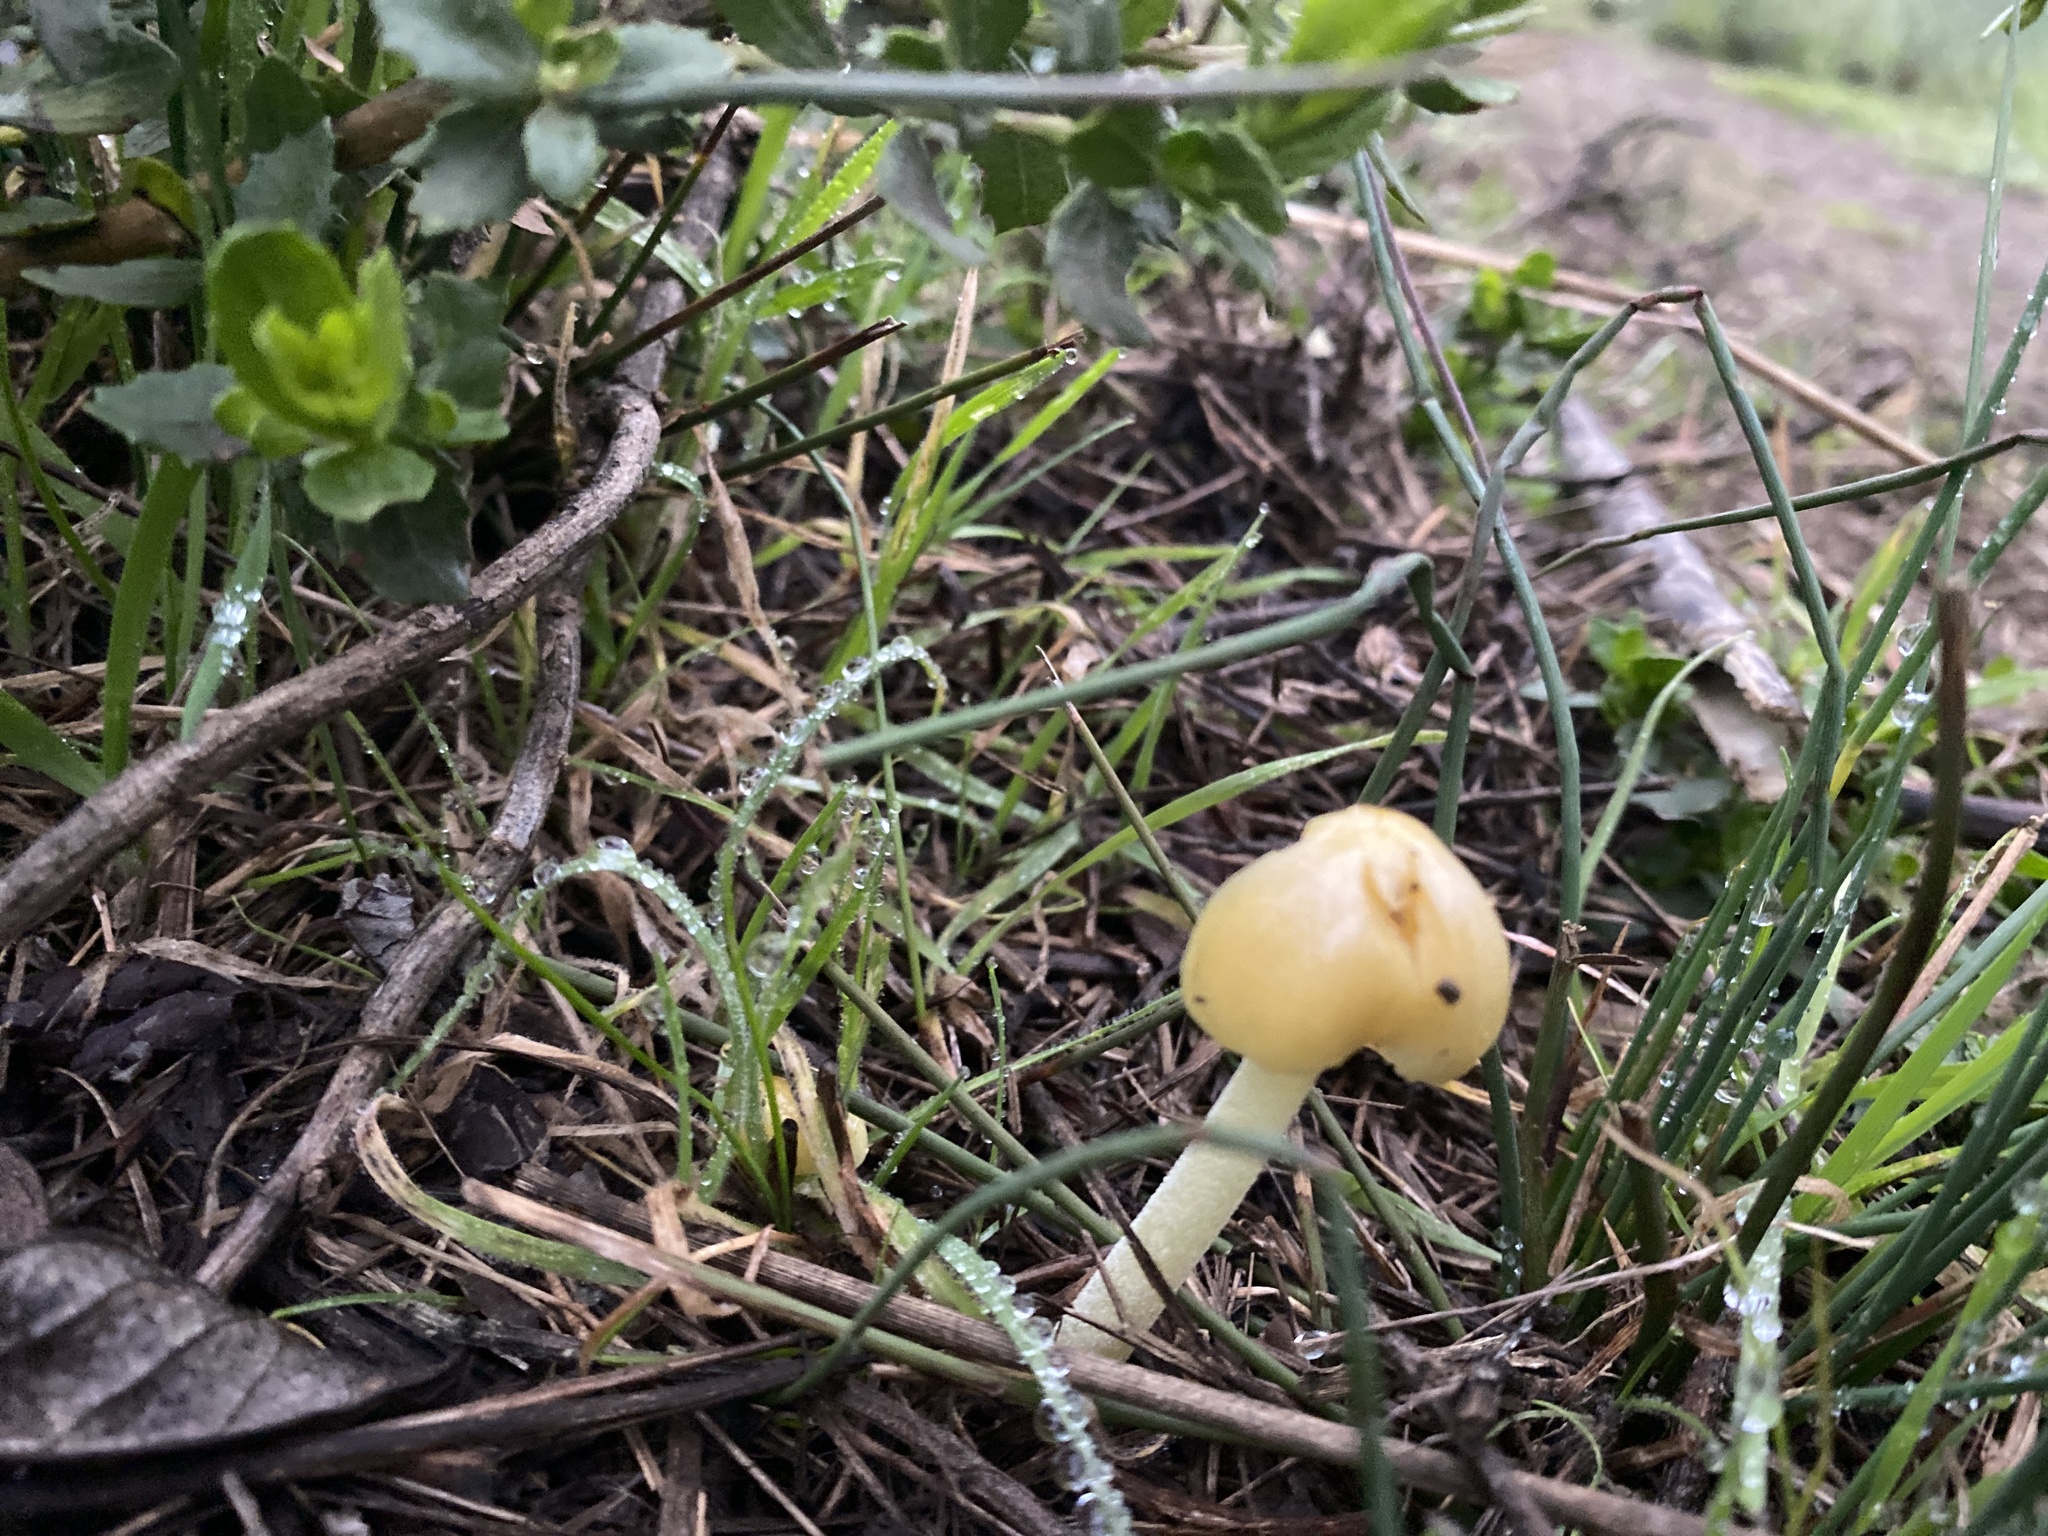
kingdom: Fungi
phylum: Basidiomycota
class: Agaricomycetes
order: Agaricales
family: Bolbitiaceae
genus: Bolbitius
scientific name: Bolbitius titubans
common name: Yellow fieldcap
